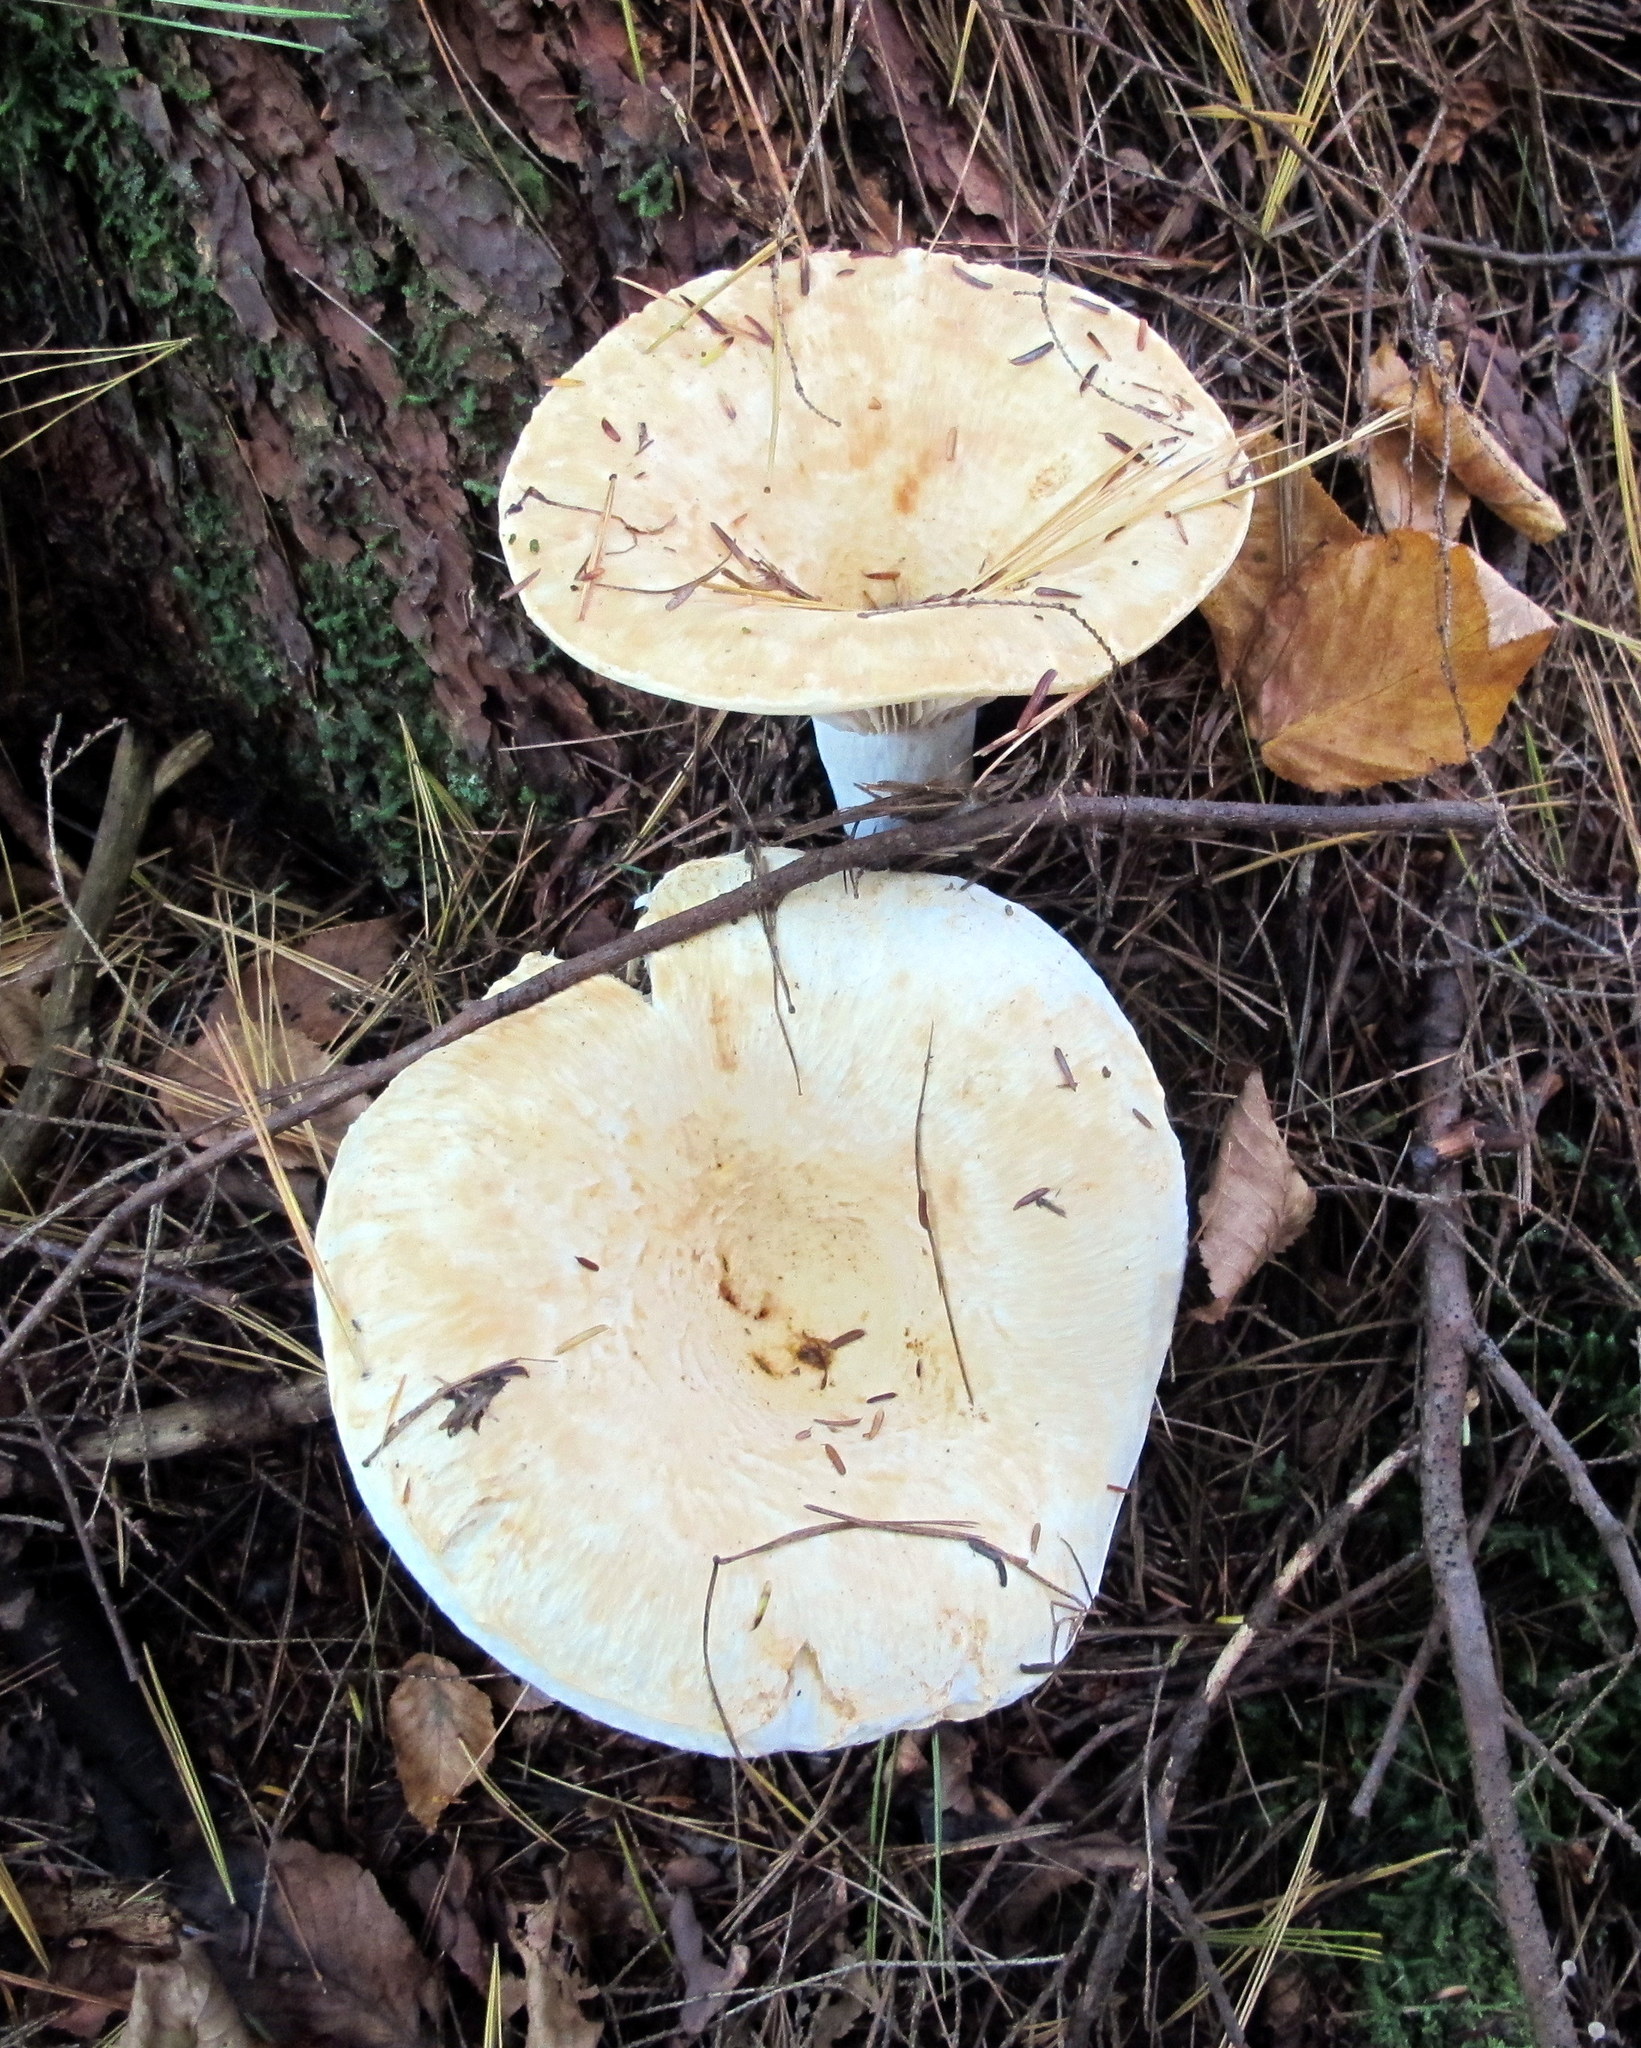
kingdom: Fungi
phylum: Basidiomycota
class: Agaricomycetes
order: Russulales
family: Russulaceae
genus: Russula
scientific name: Russula brevipes
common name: Short-stemmed russula
